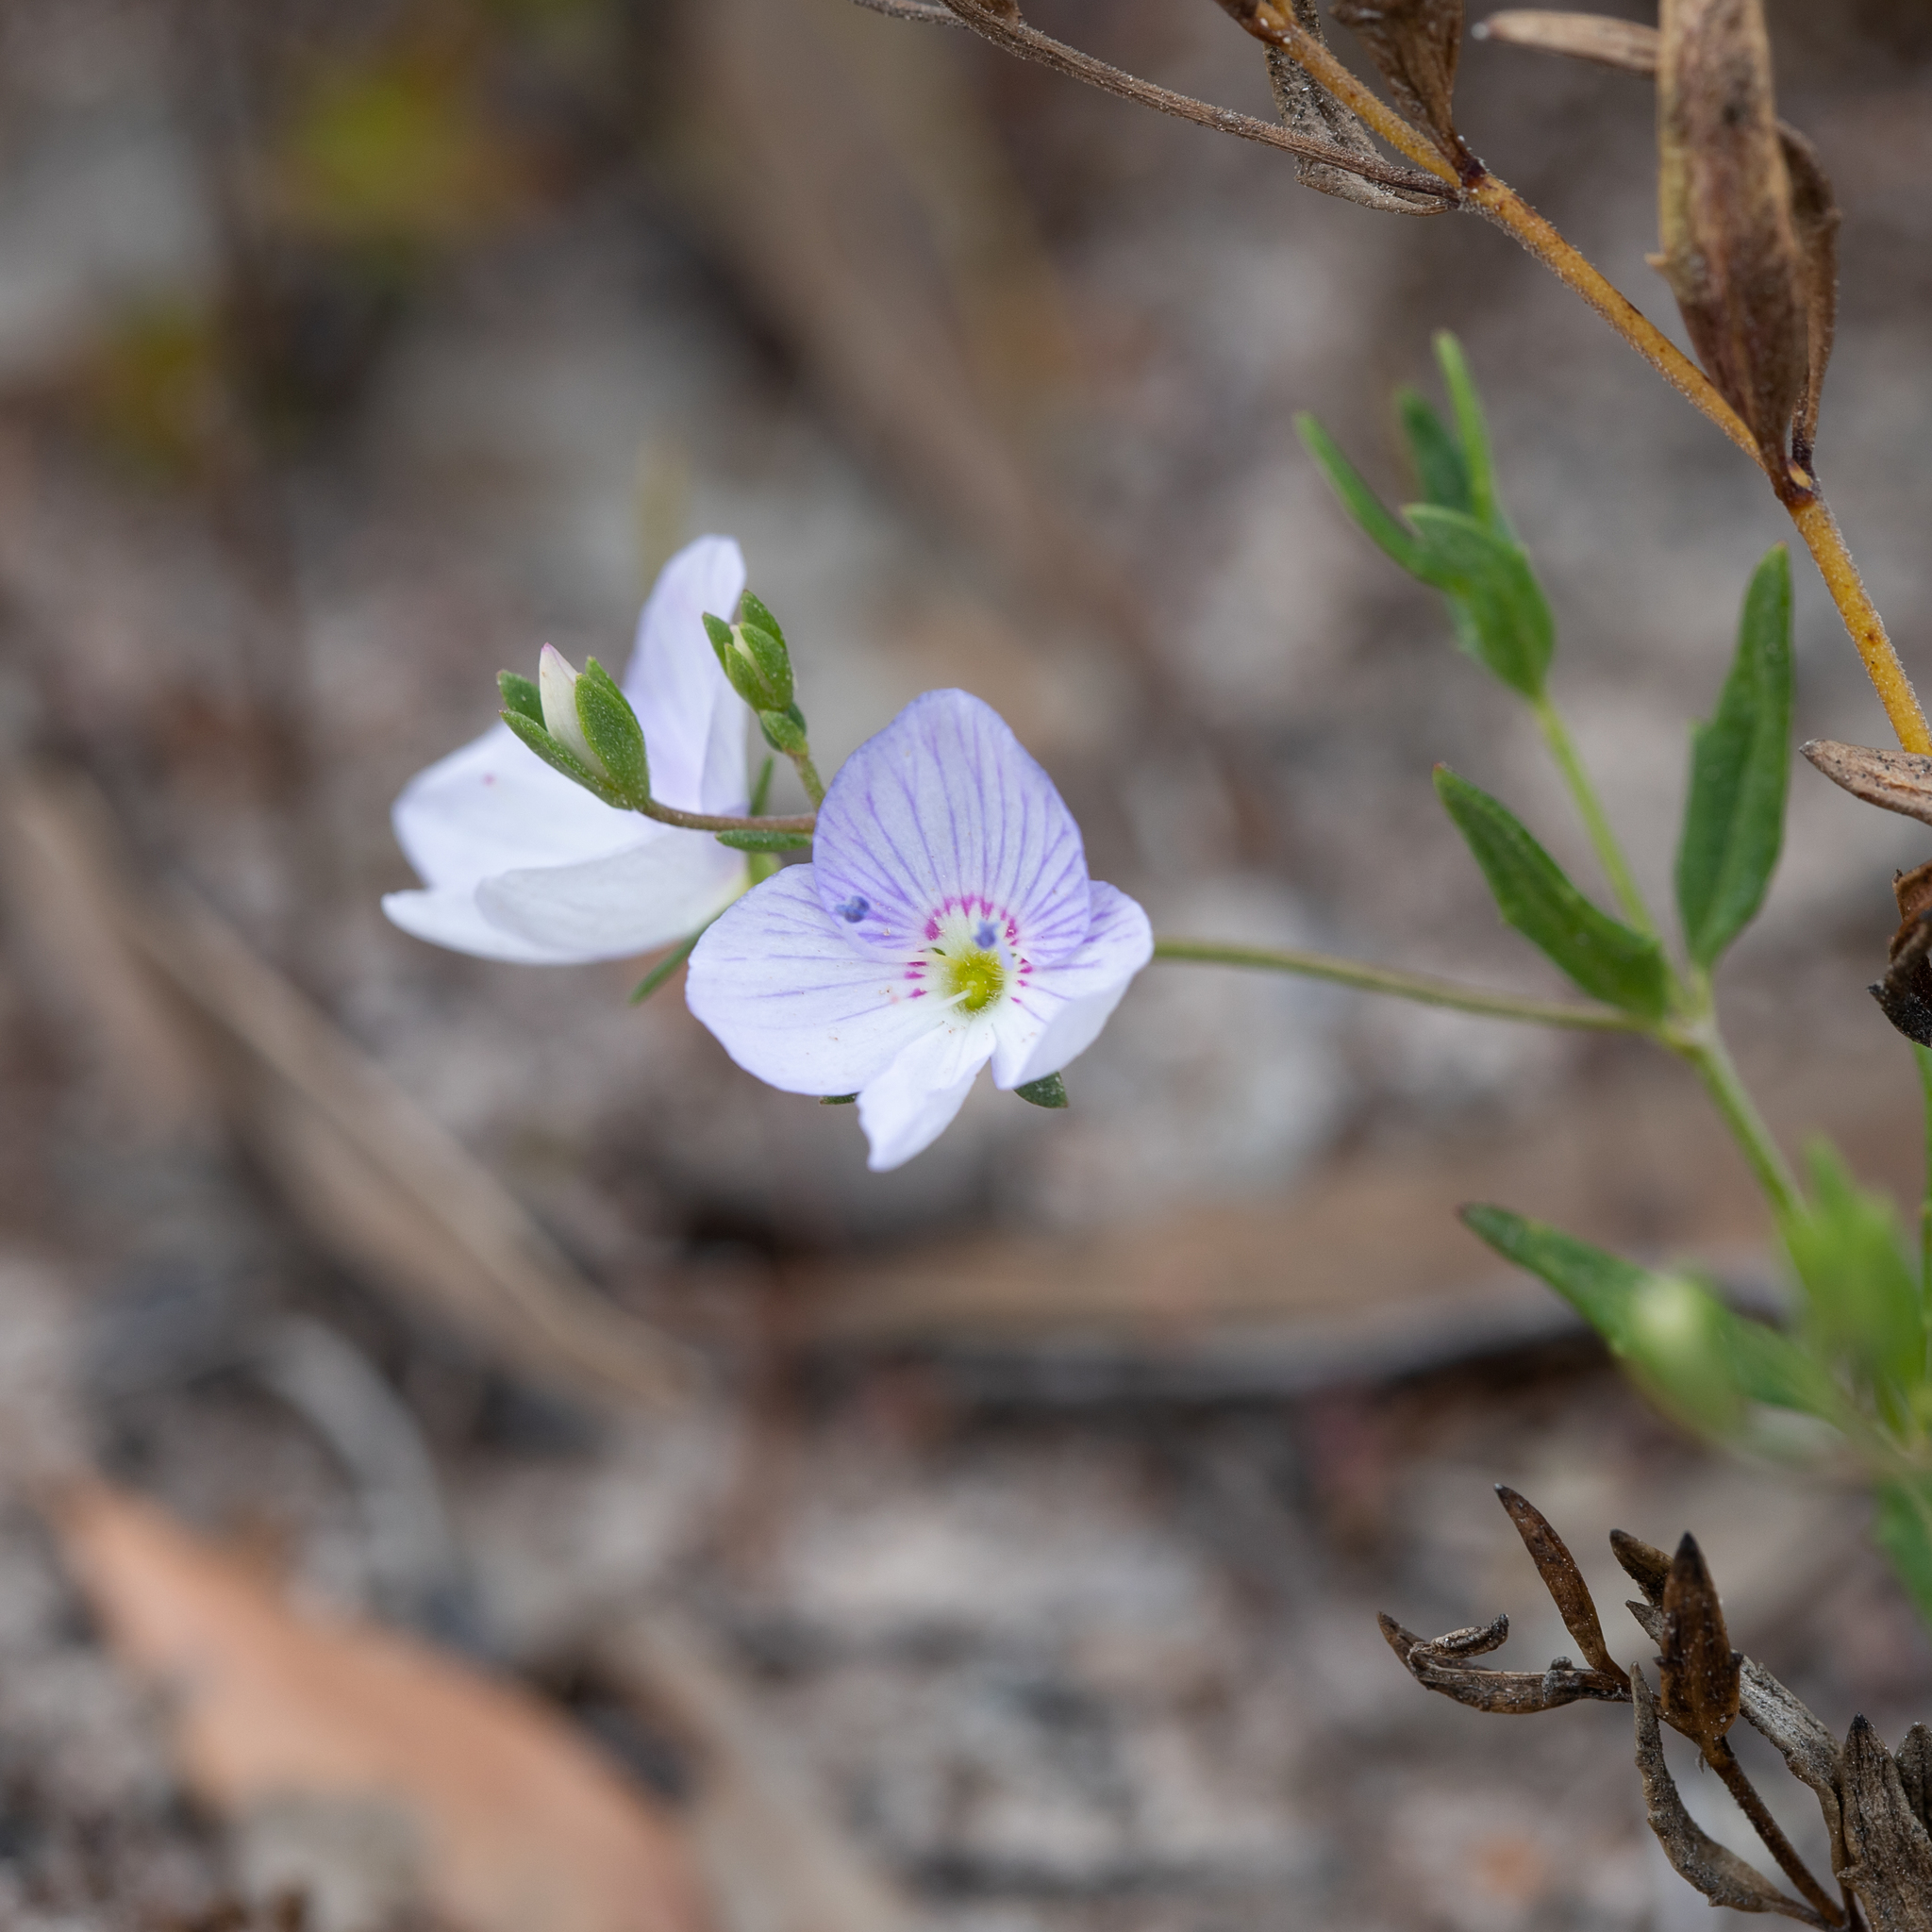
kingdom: Plantae
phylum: Tracheophyta
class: Magnoliopsida
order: Lamiales
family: Plantaginaceae
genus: Veronica
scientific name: Veronica hillebrandii
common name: Coast speedwell
